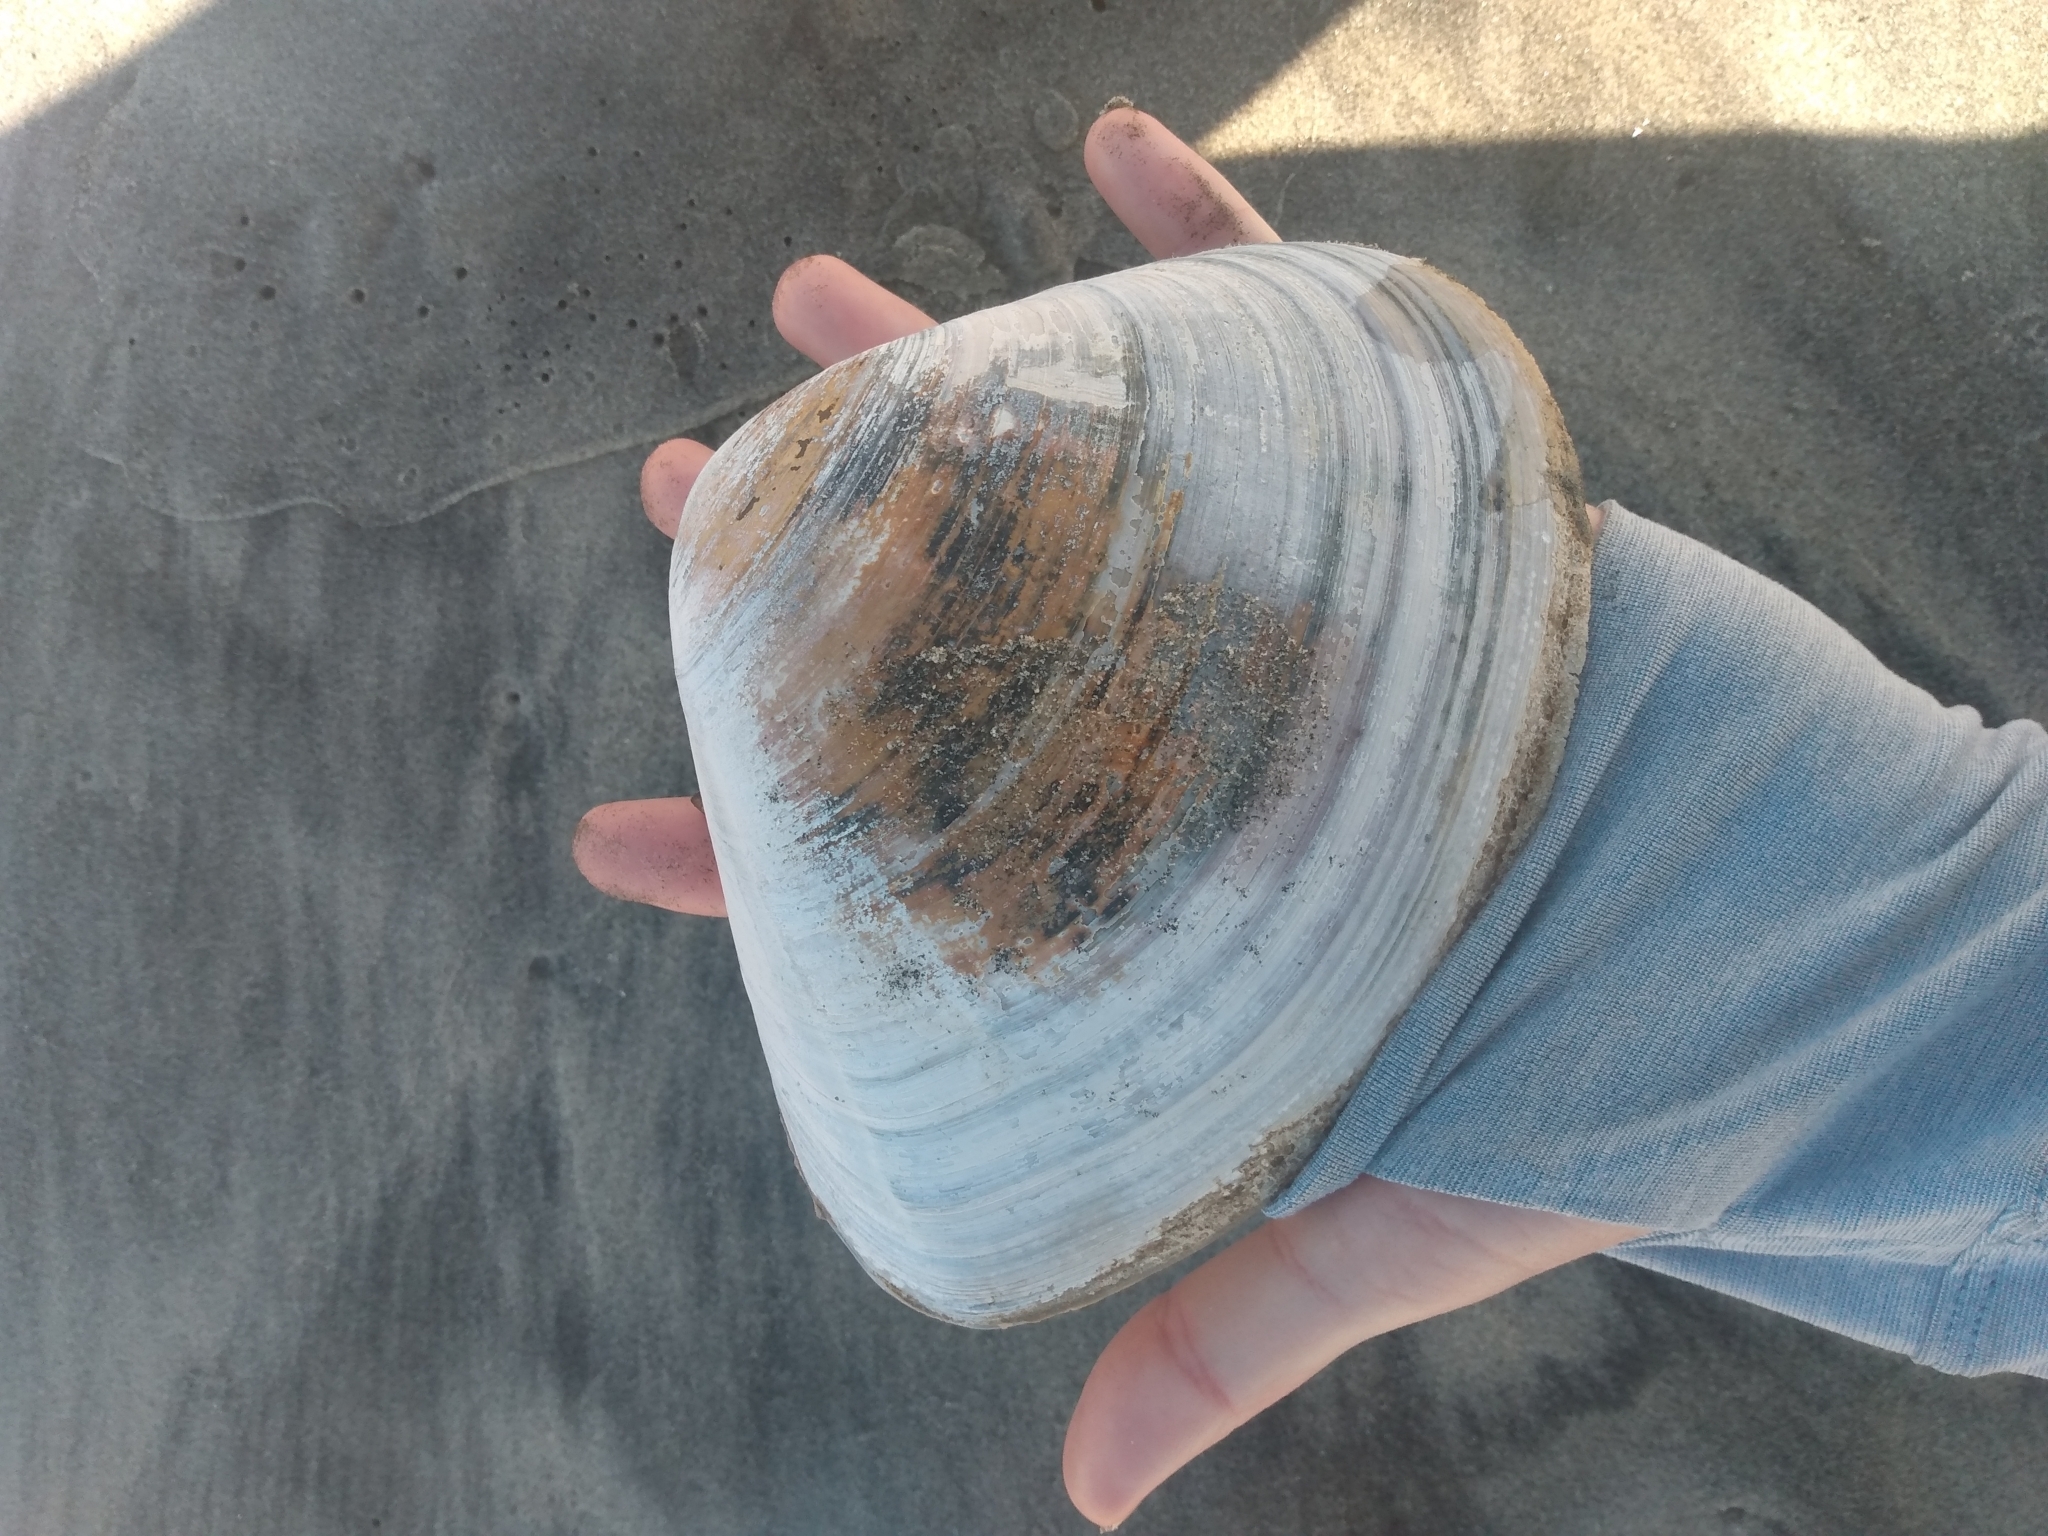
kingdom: Animalia
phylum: Mollusca
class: Bivalvia
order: Venerida
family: Veneridae
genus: Tivela
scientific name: Tivela stultorum
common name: Pismo clam
